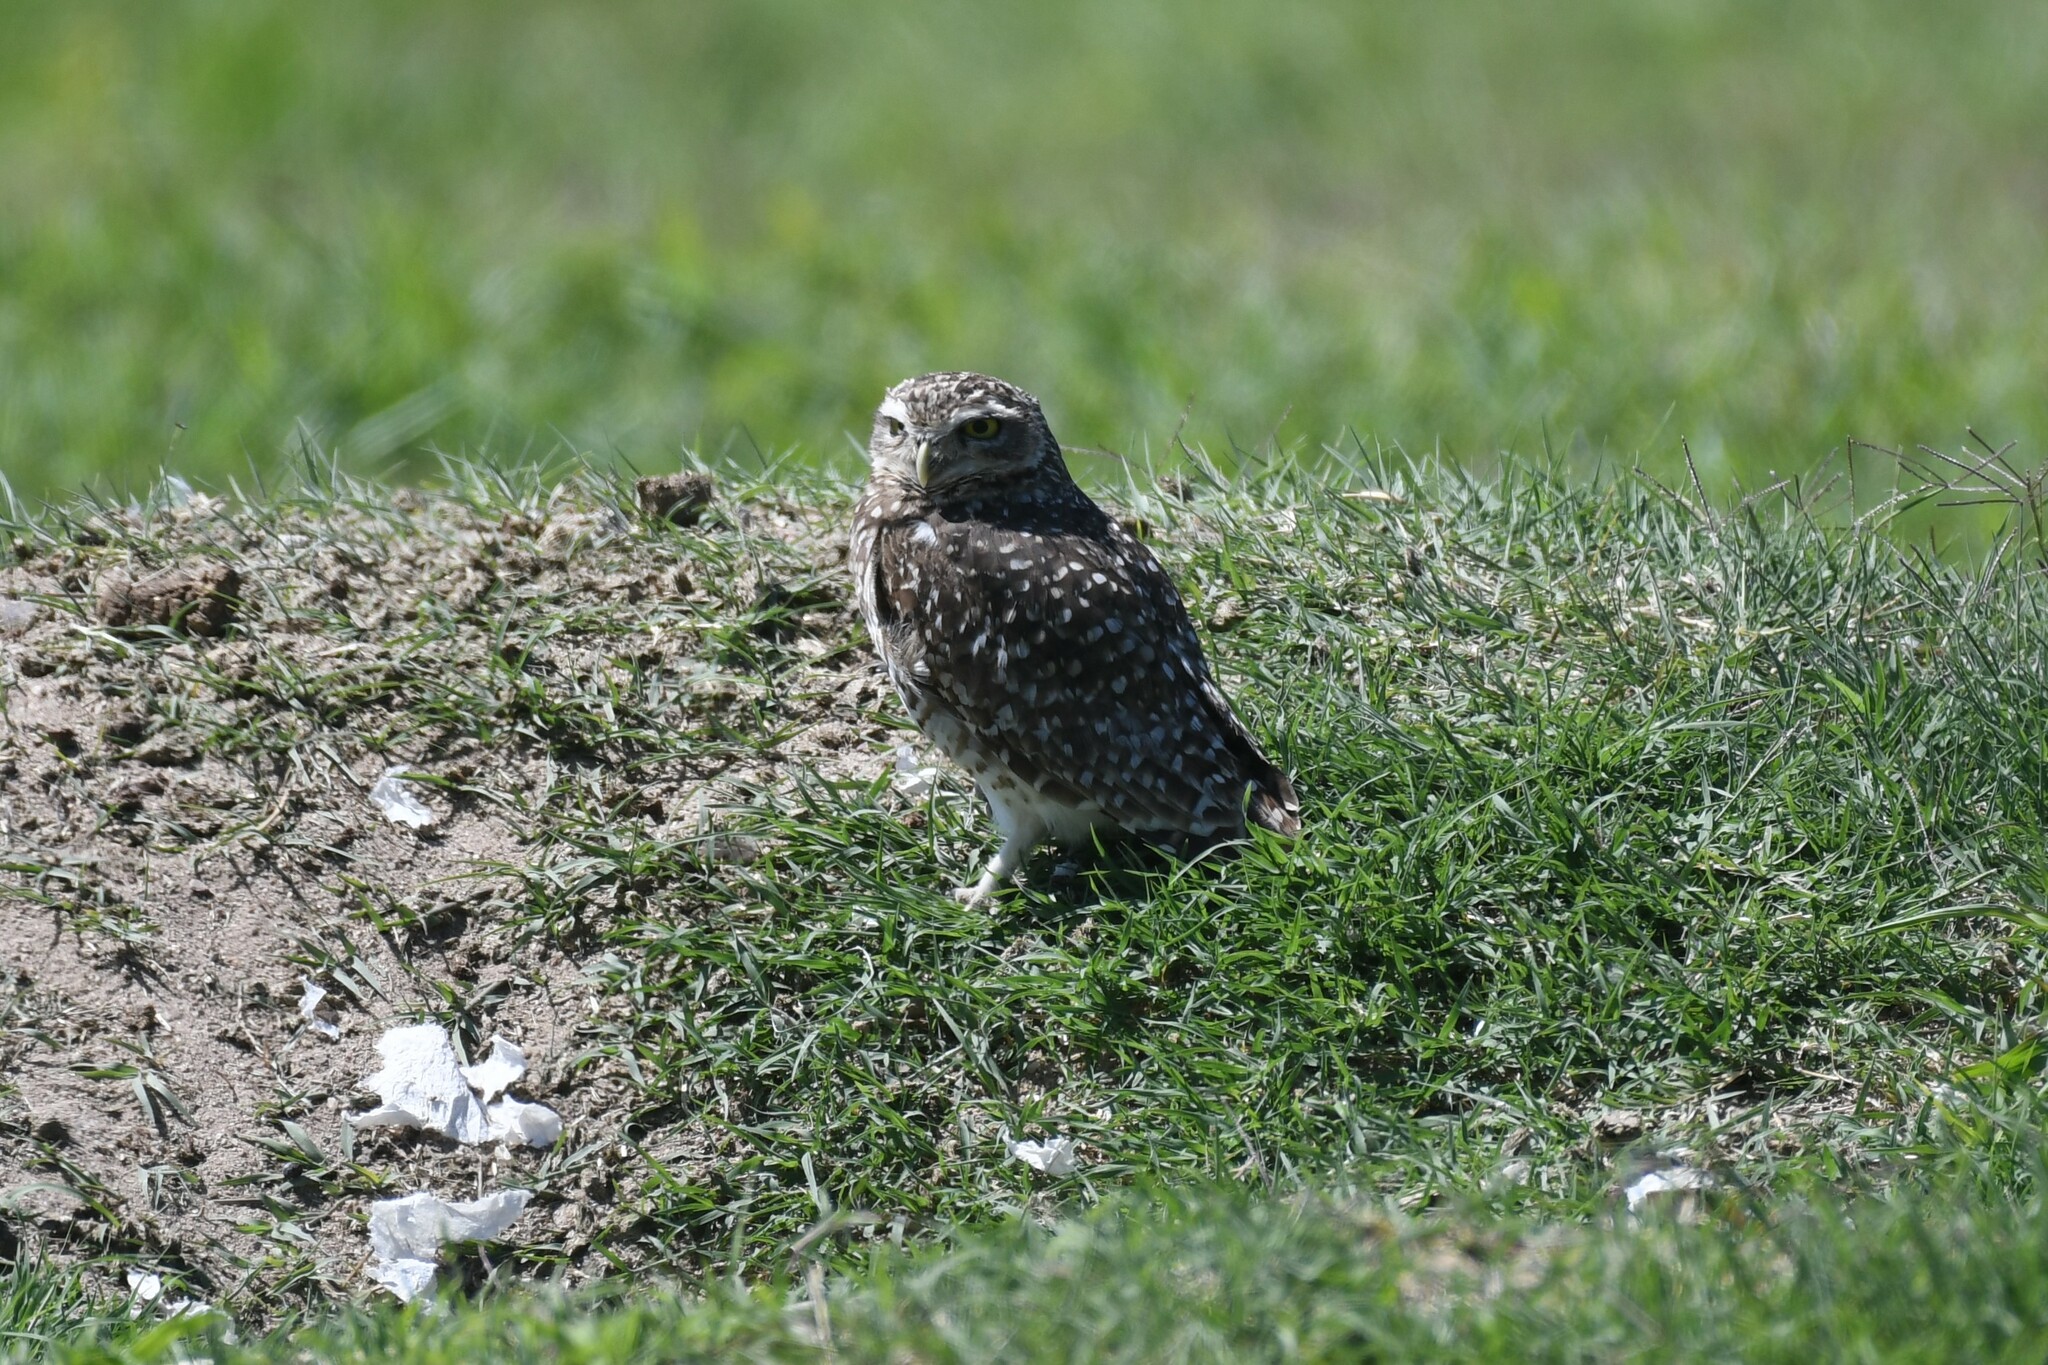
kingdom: Animalia
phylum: Chordata
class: Aves
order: Strigiformes
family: Strigidae
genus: Athene
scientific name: Athene cunicularia
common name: Burrowing owl
